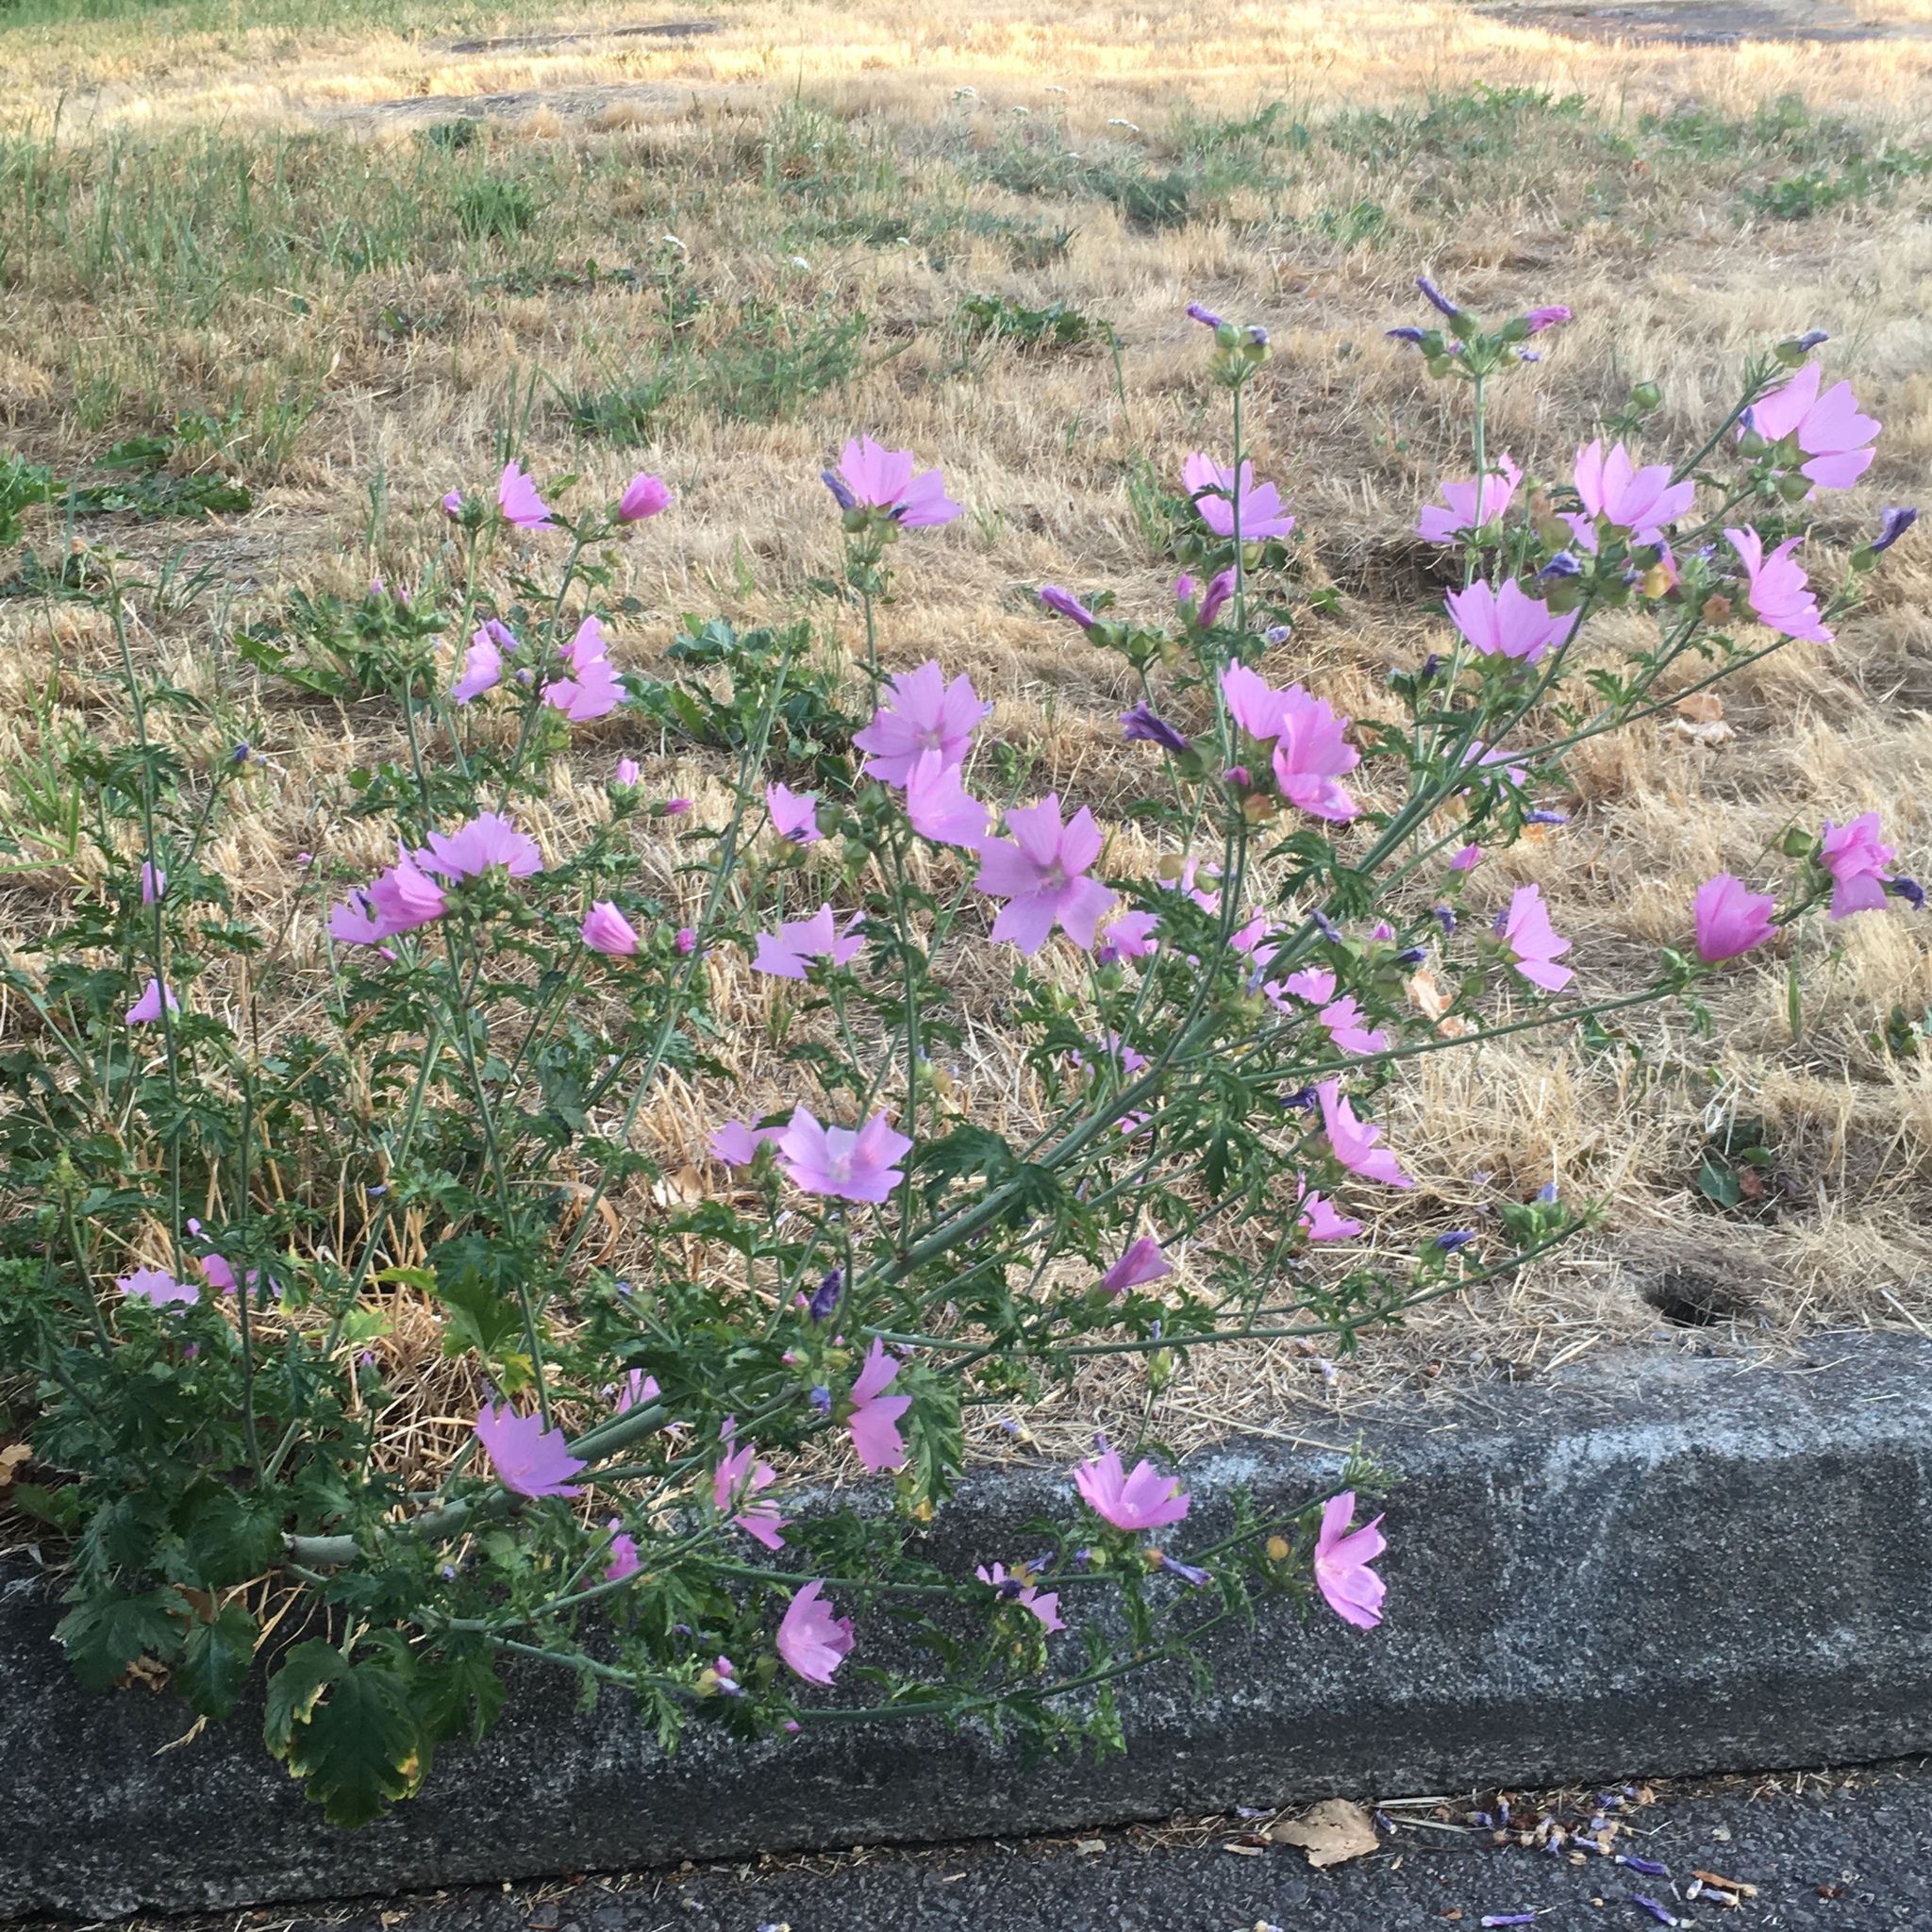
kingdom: Plantae
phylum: Tracheophyta
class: Magnoliopsida
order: Malvales
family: Malvaceae
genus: Malva
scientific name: Malva moschata
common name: Musk mallow
